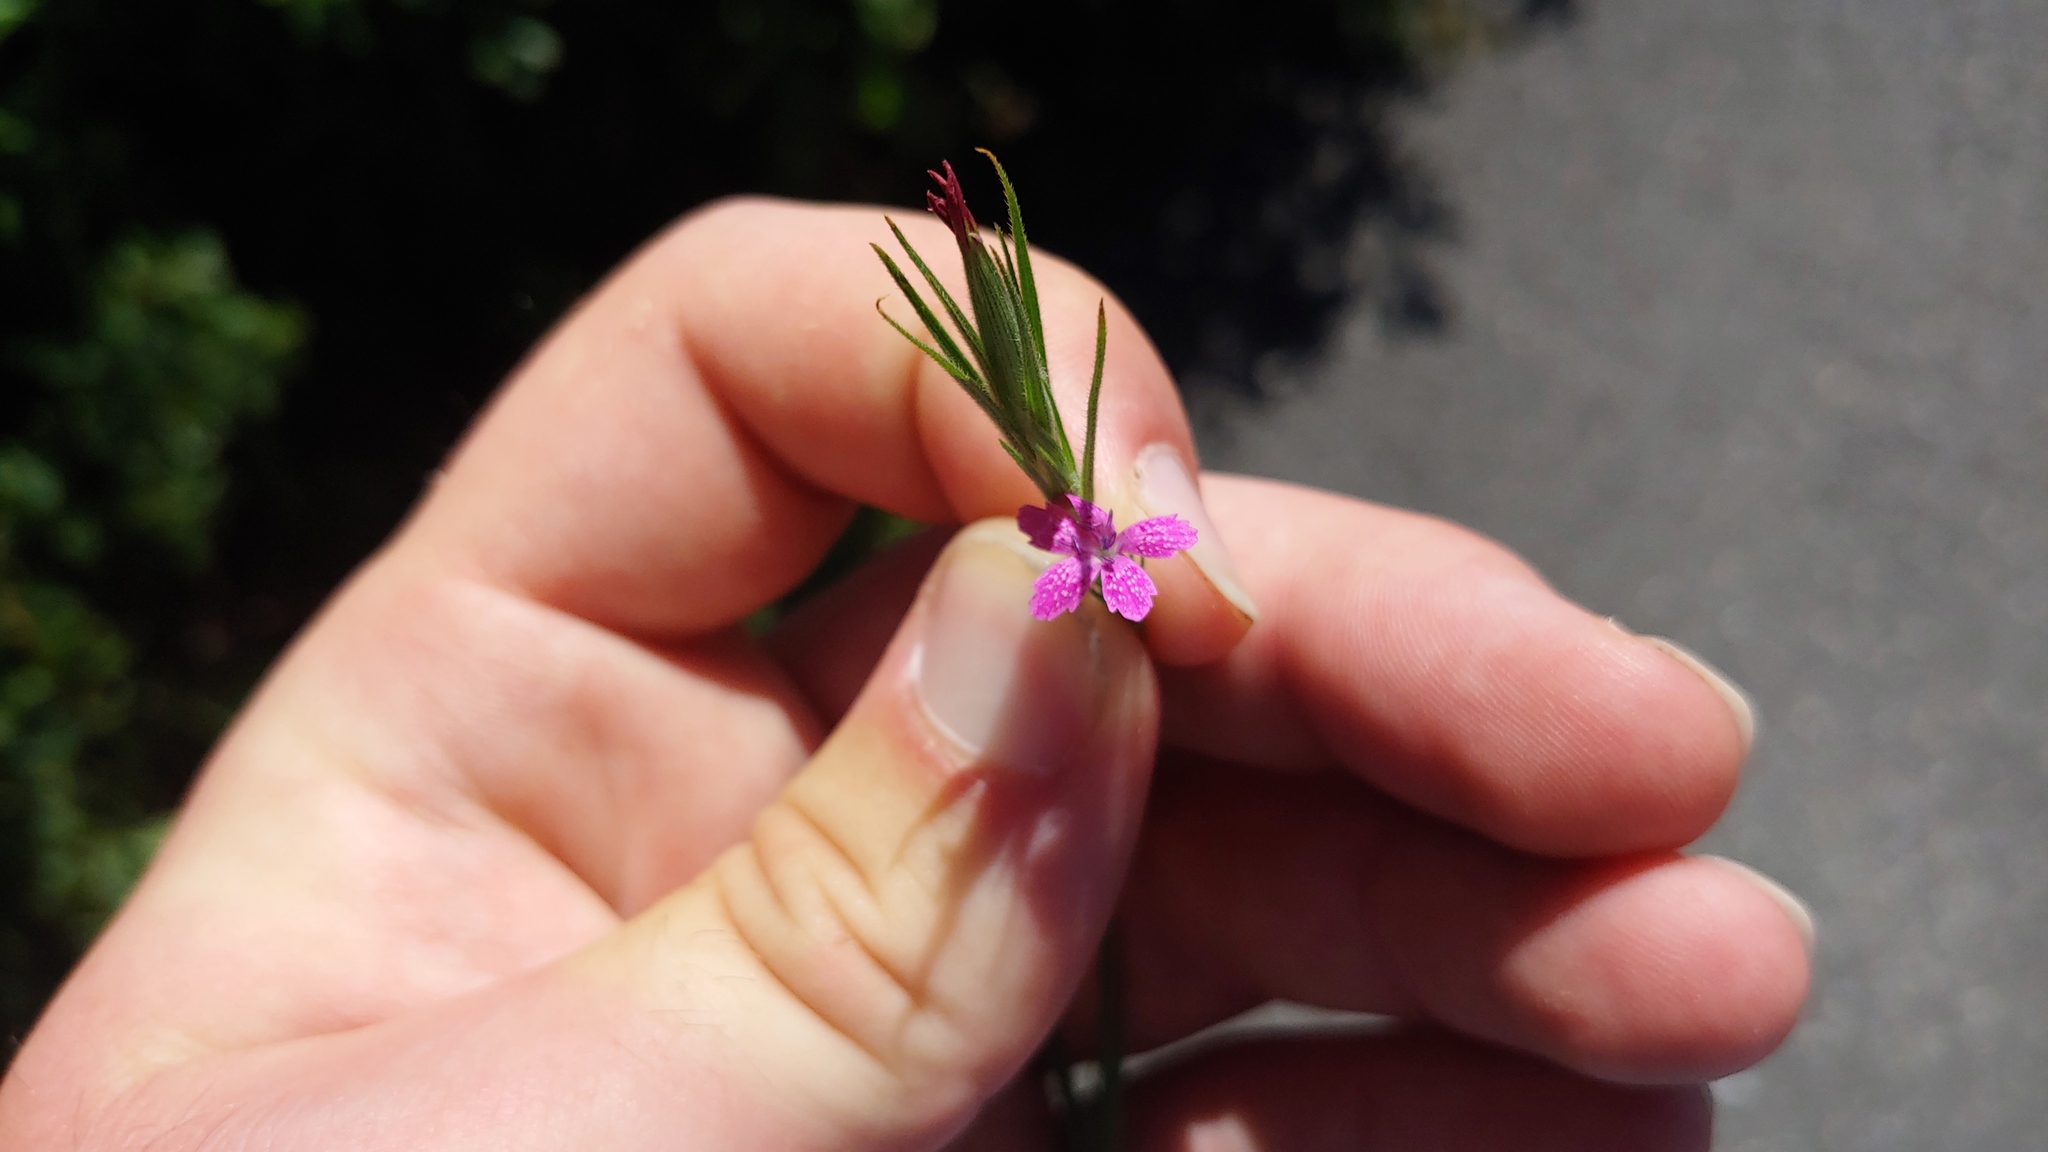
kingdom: Plantae
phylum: Tracheophyta
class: Magnoliopsida
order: Caryophyllales
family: Caryophyllaceae
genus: Dianthus
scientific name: Dianthus armeria
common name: Deptford pink
